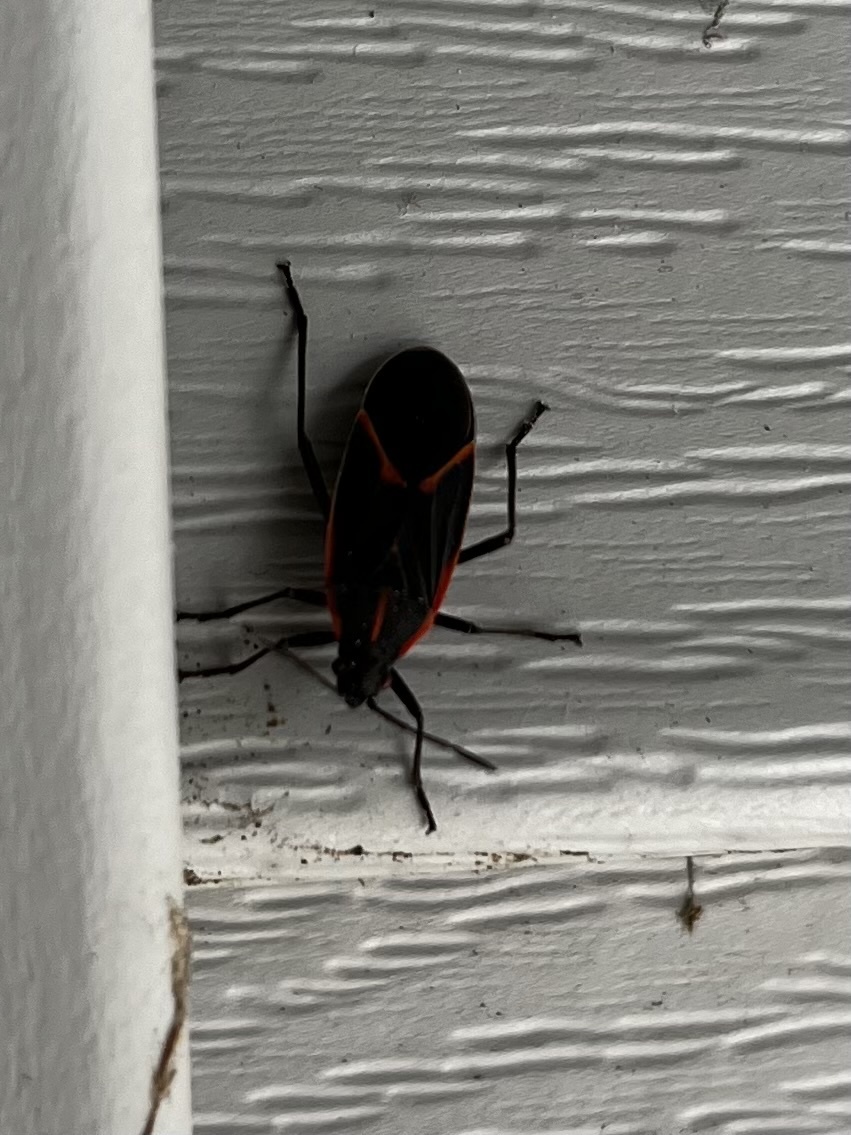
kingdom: Animalia
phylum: Arthropoda
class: Insecta
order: Hemiptera
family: Rhopalidae
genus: Boisea
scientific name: Boisea trivittata
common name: Boxelder bug
